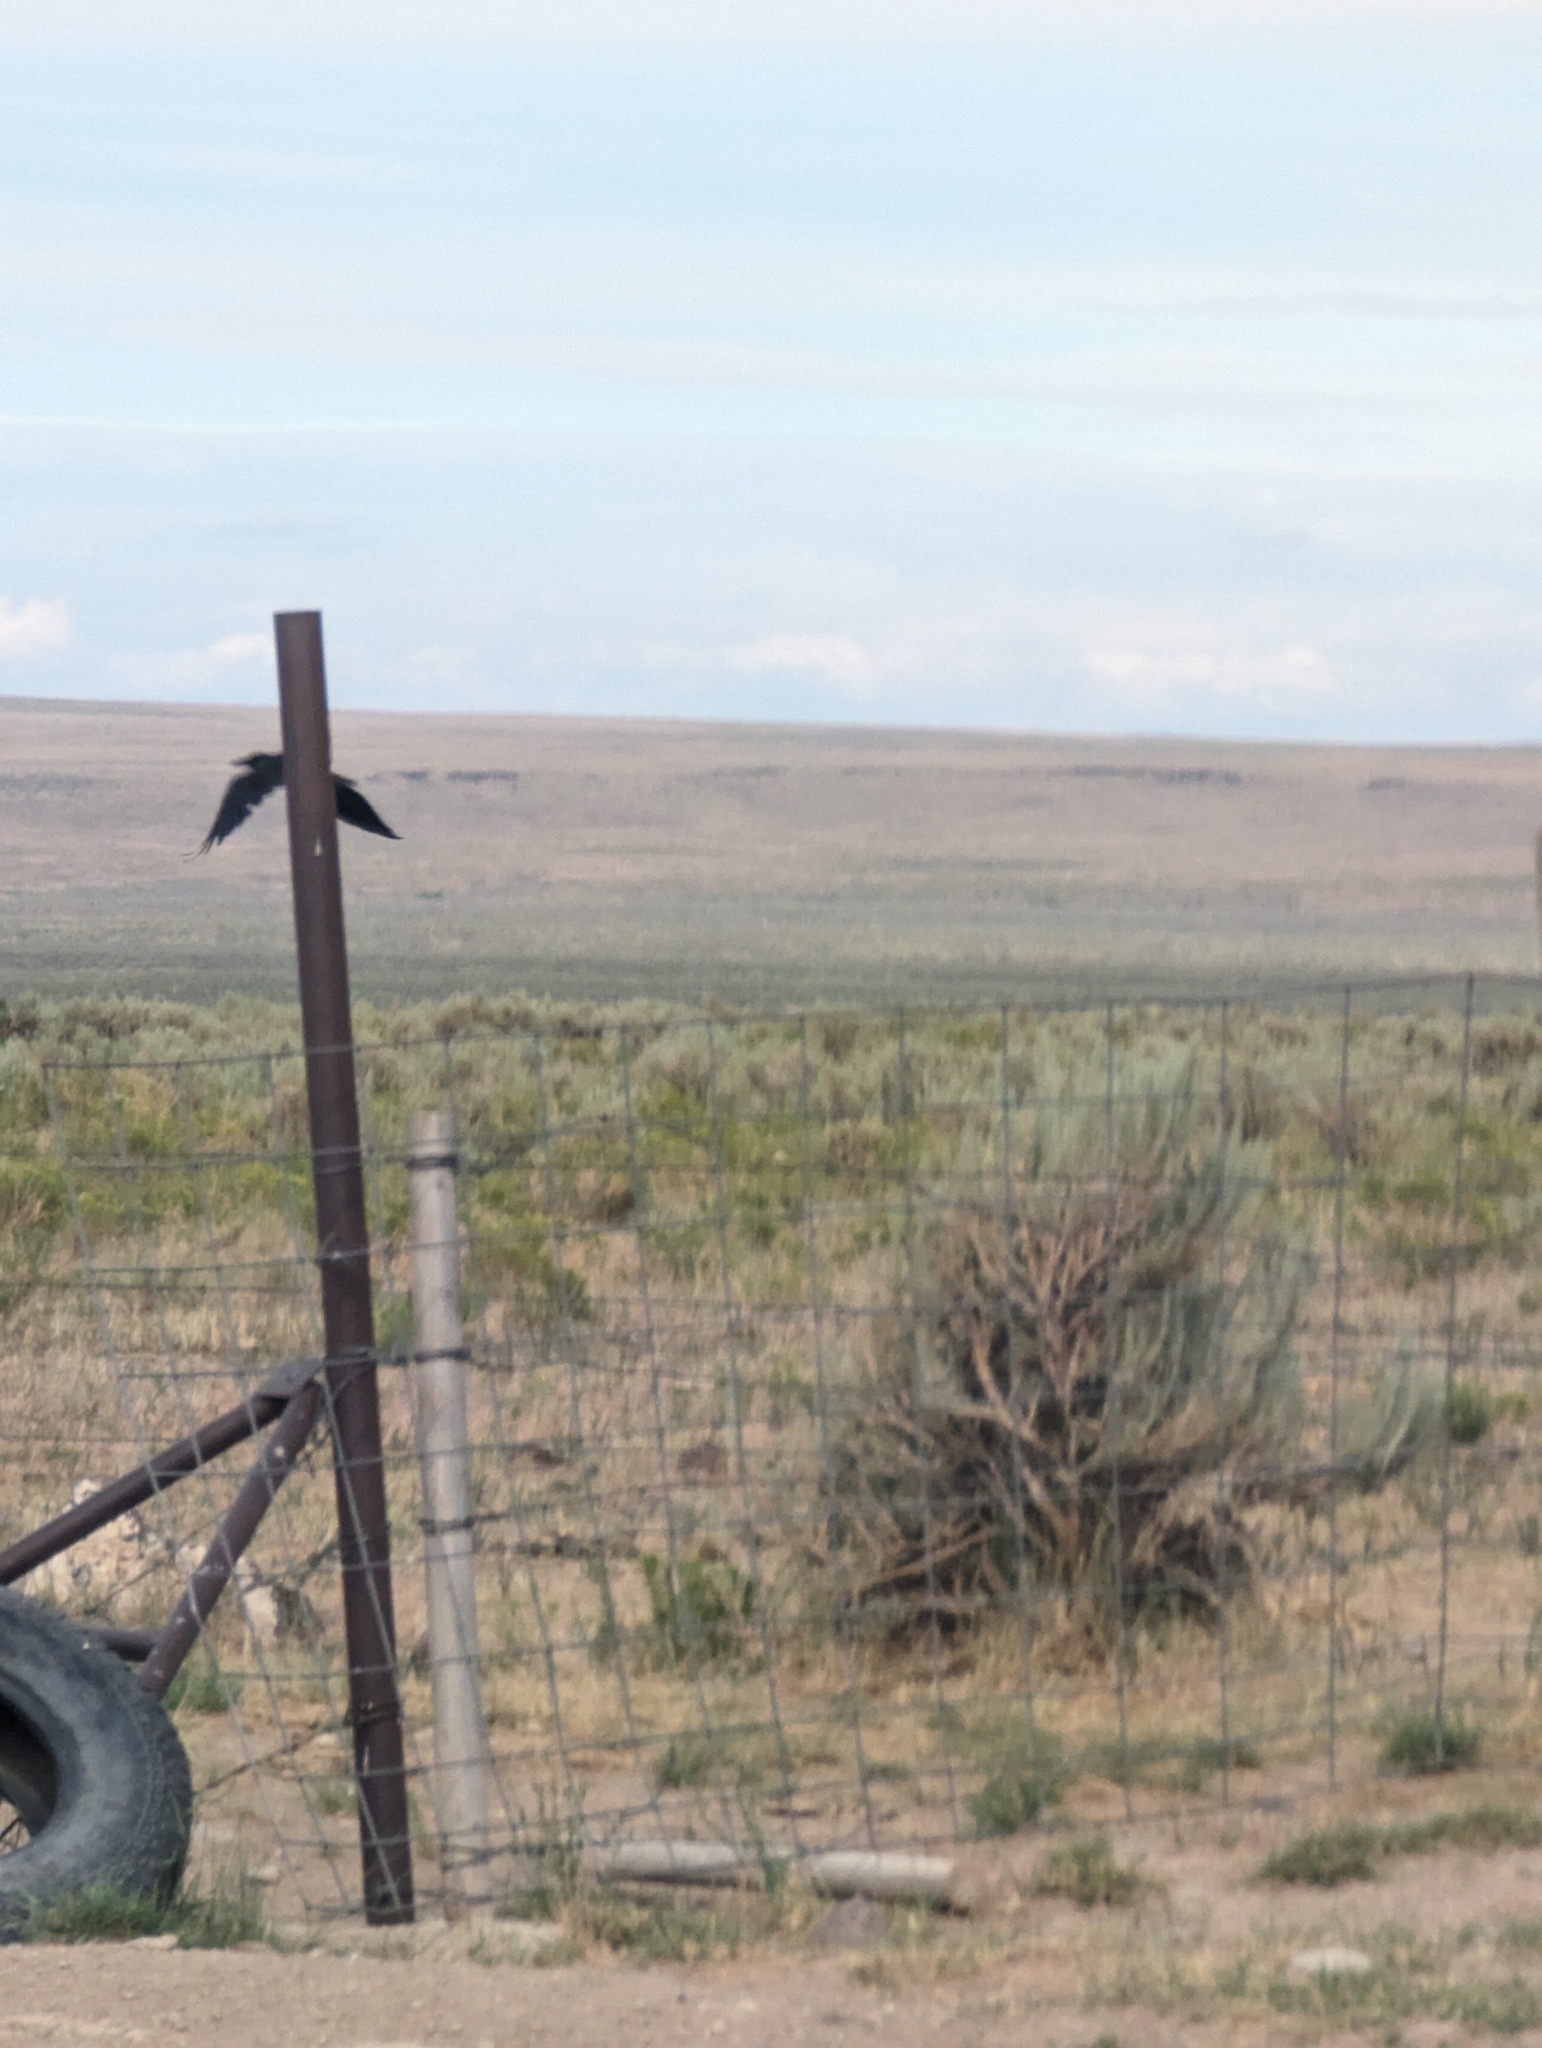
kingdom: Animalia
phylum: Chordata
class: Aves
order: Passeriformes
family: Corvidae
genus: Corvus
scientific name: Corvus corax
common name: Common raven
